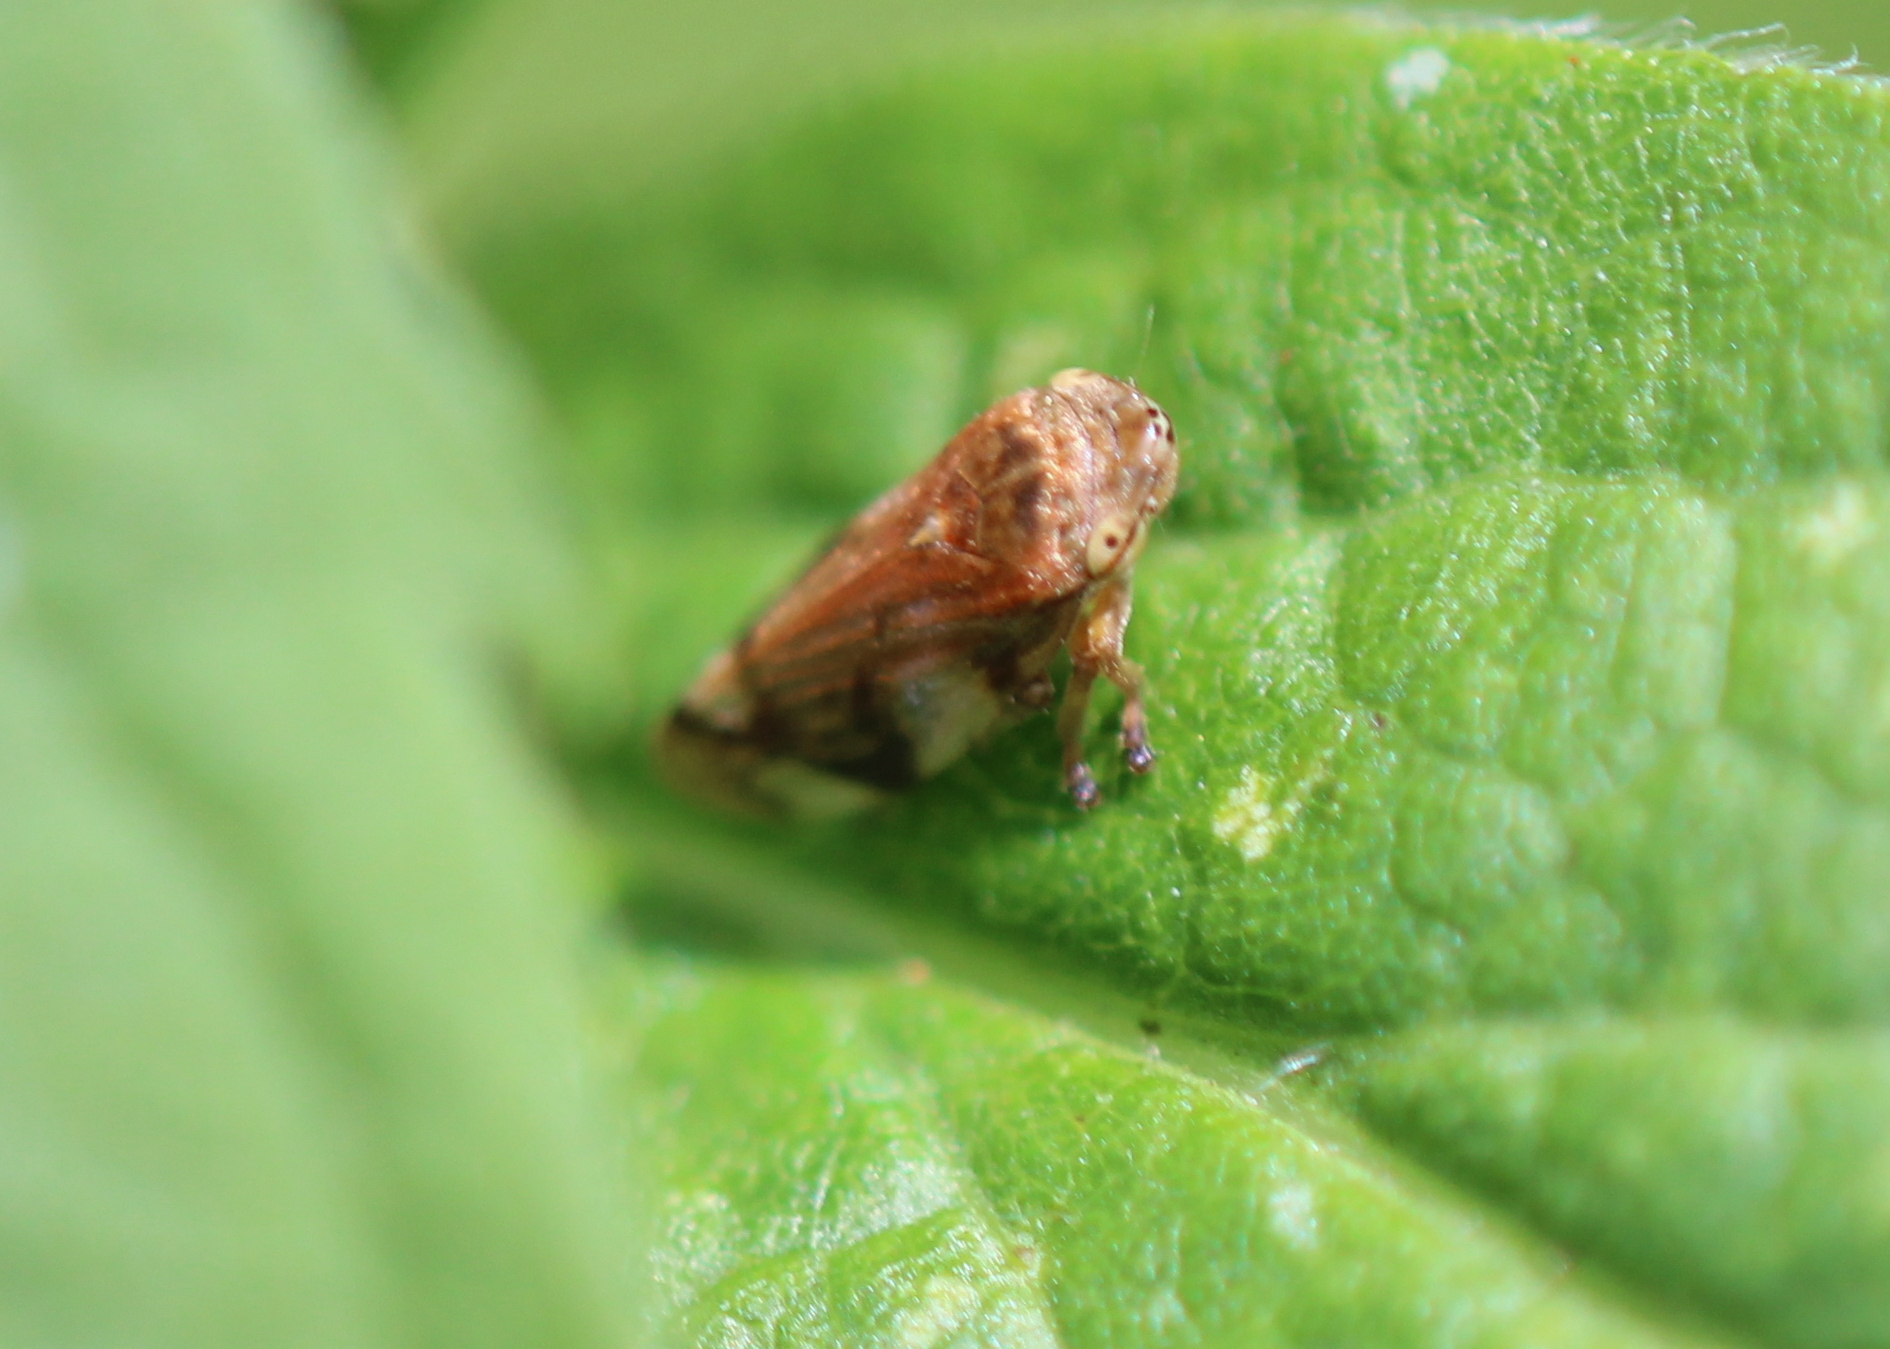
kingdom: Animalia
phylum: Arthropoda
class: Insecta
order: Hemiptera
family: Aphrophoridae
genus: Philaenus
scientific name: Philaenus spumarius
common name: Meadow spittlebug
